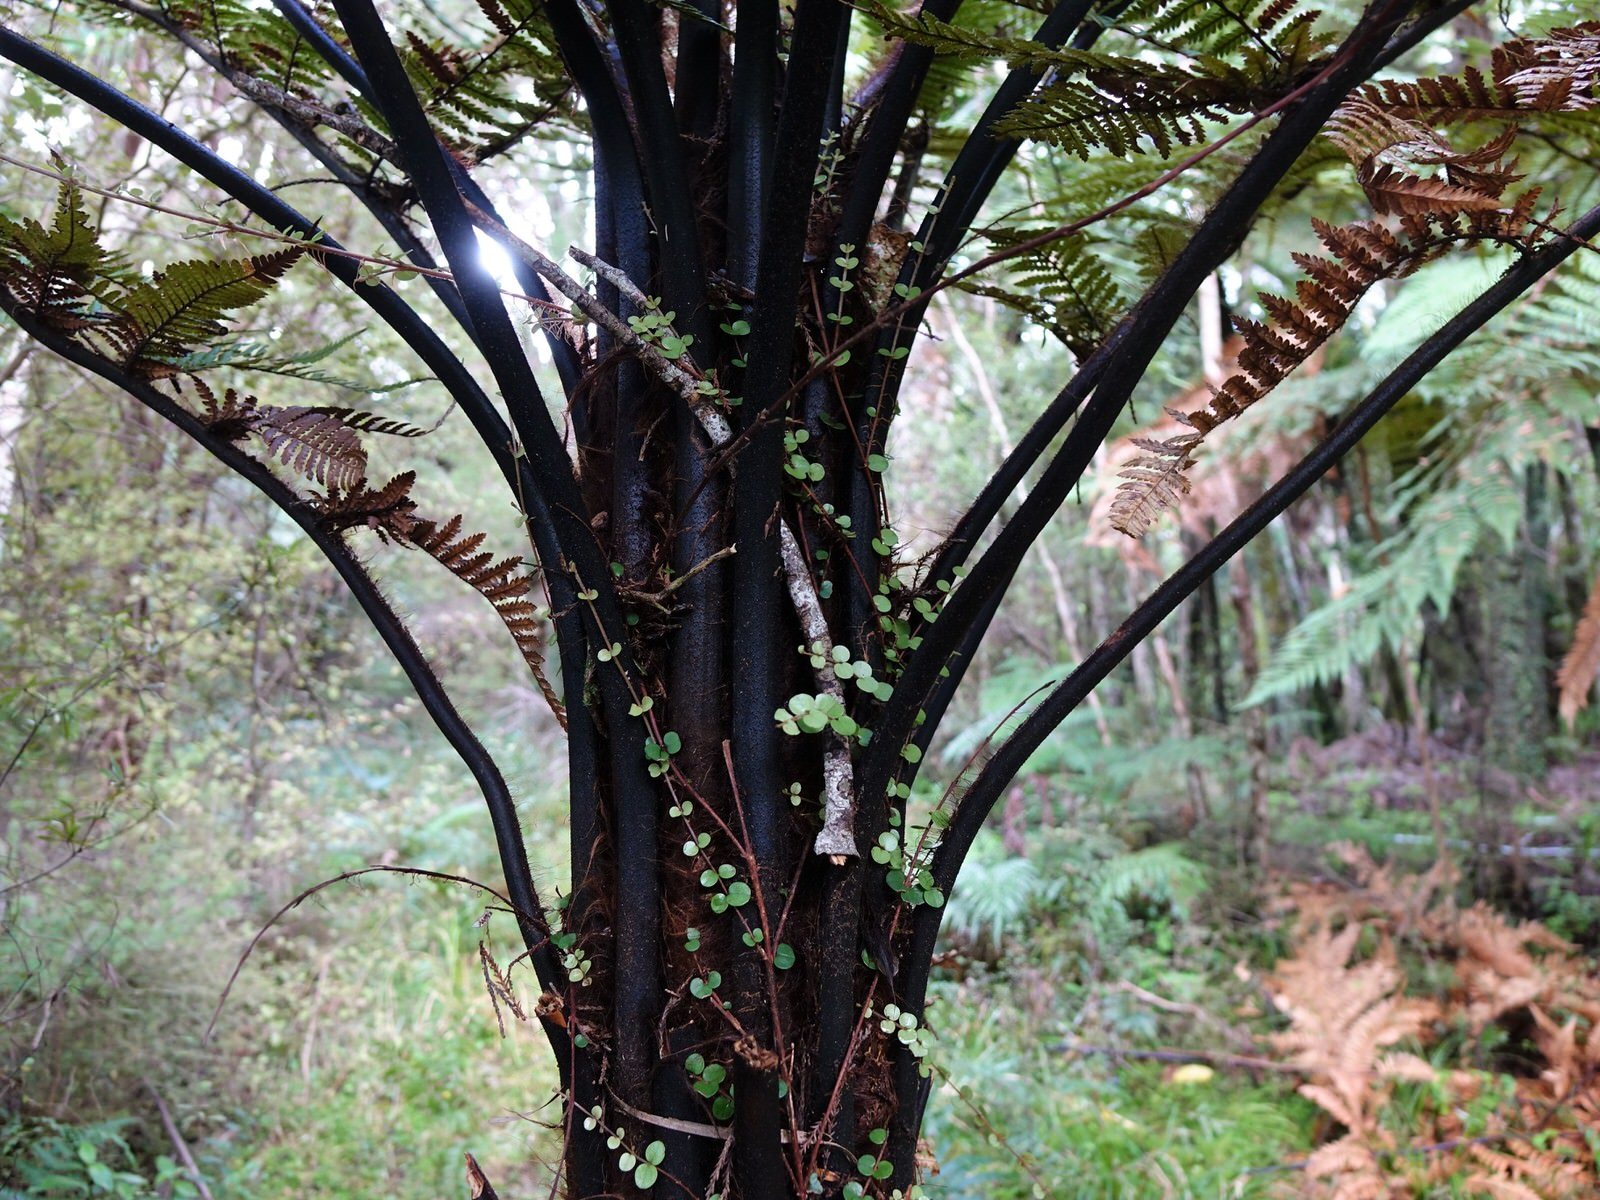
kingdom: Plantae
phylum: Tracheophyta
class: Polypodiopsida
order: Cyatheales
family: Dicksoniaceae
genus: Dicksonia
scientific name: Dicksonia squarrosa
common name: Hard treefern
